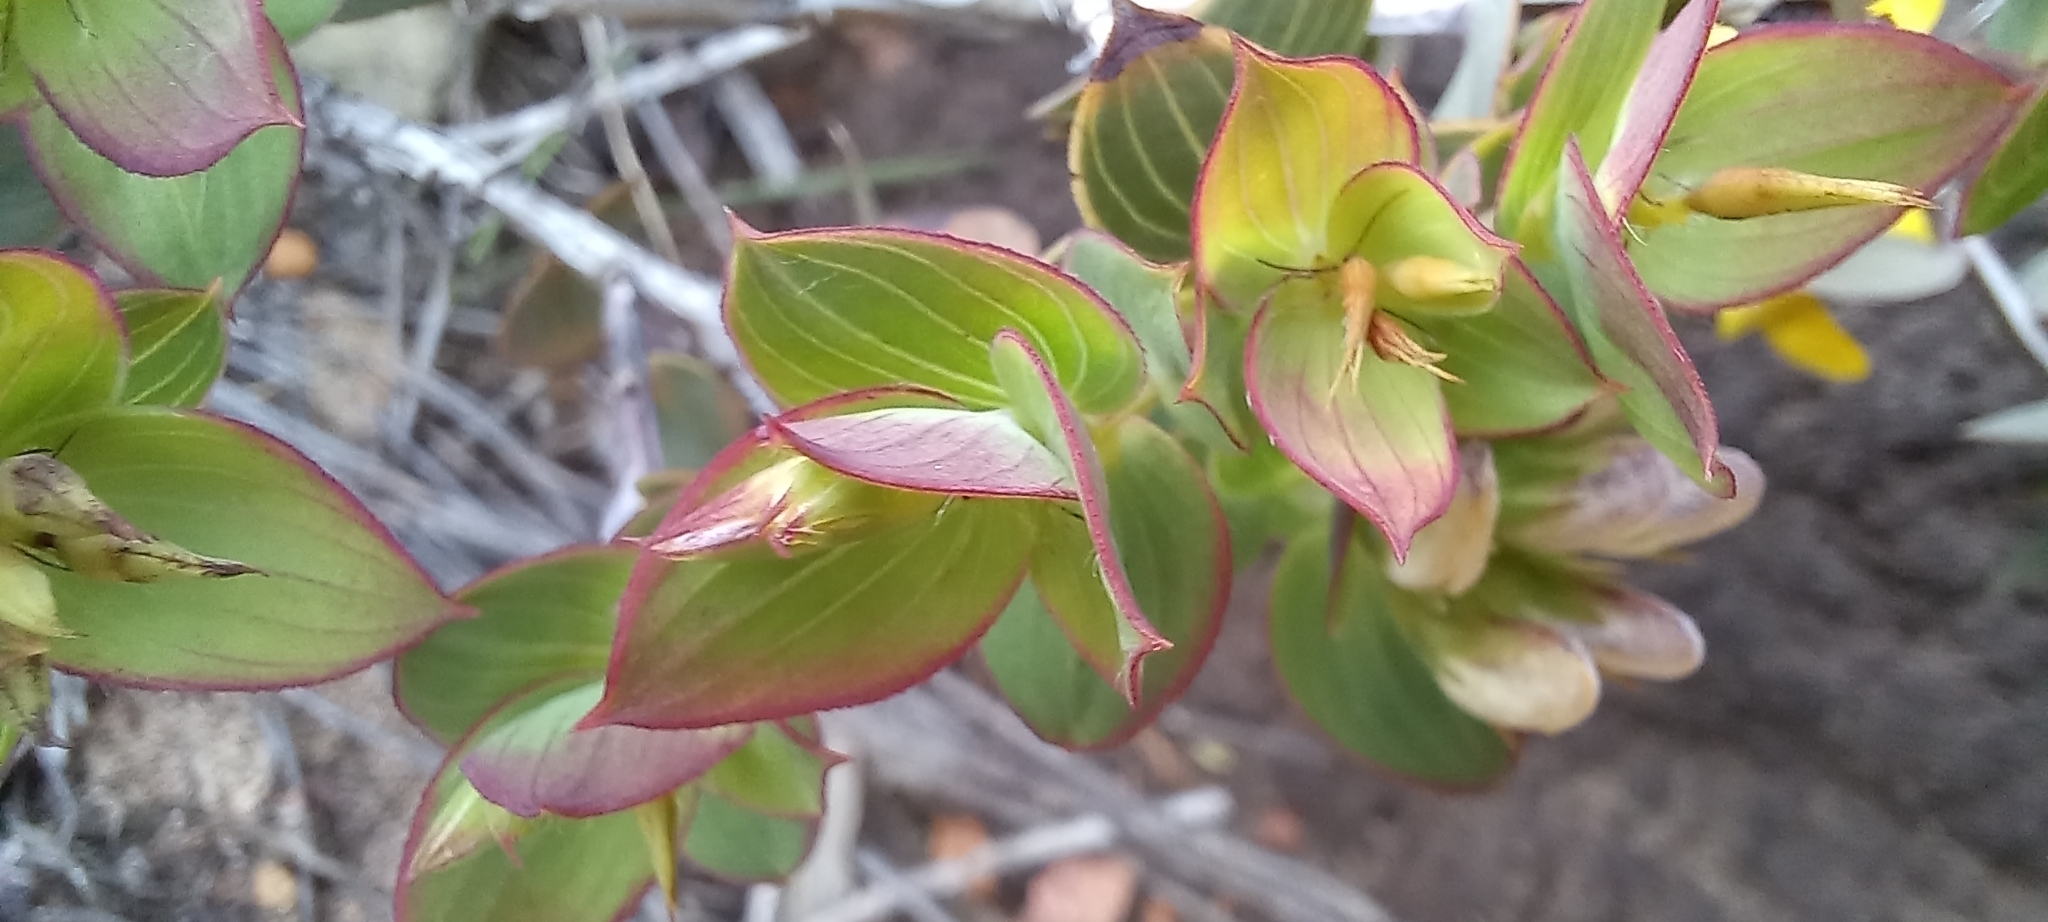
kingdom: Plantae
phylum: Tracheophyta
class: Magnoliopsida
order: Fabales
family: Fabaceae
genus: Aspalathus
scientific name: Aspalathus crenata
